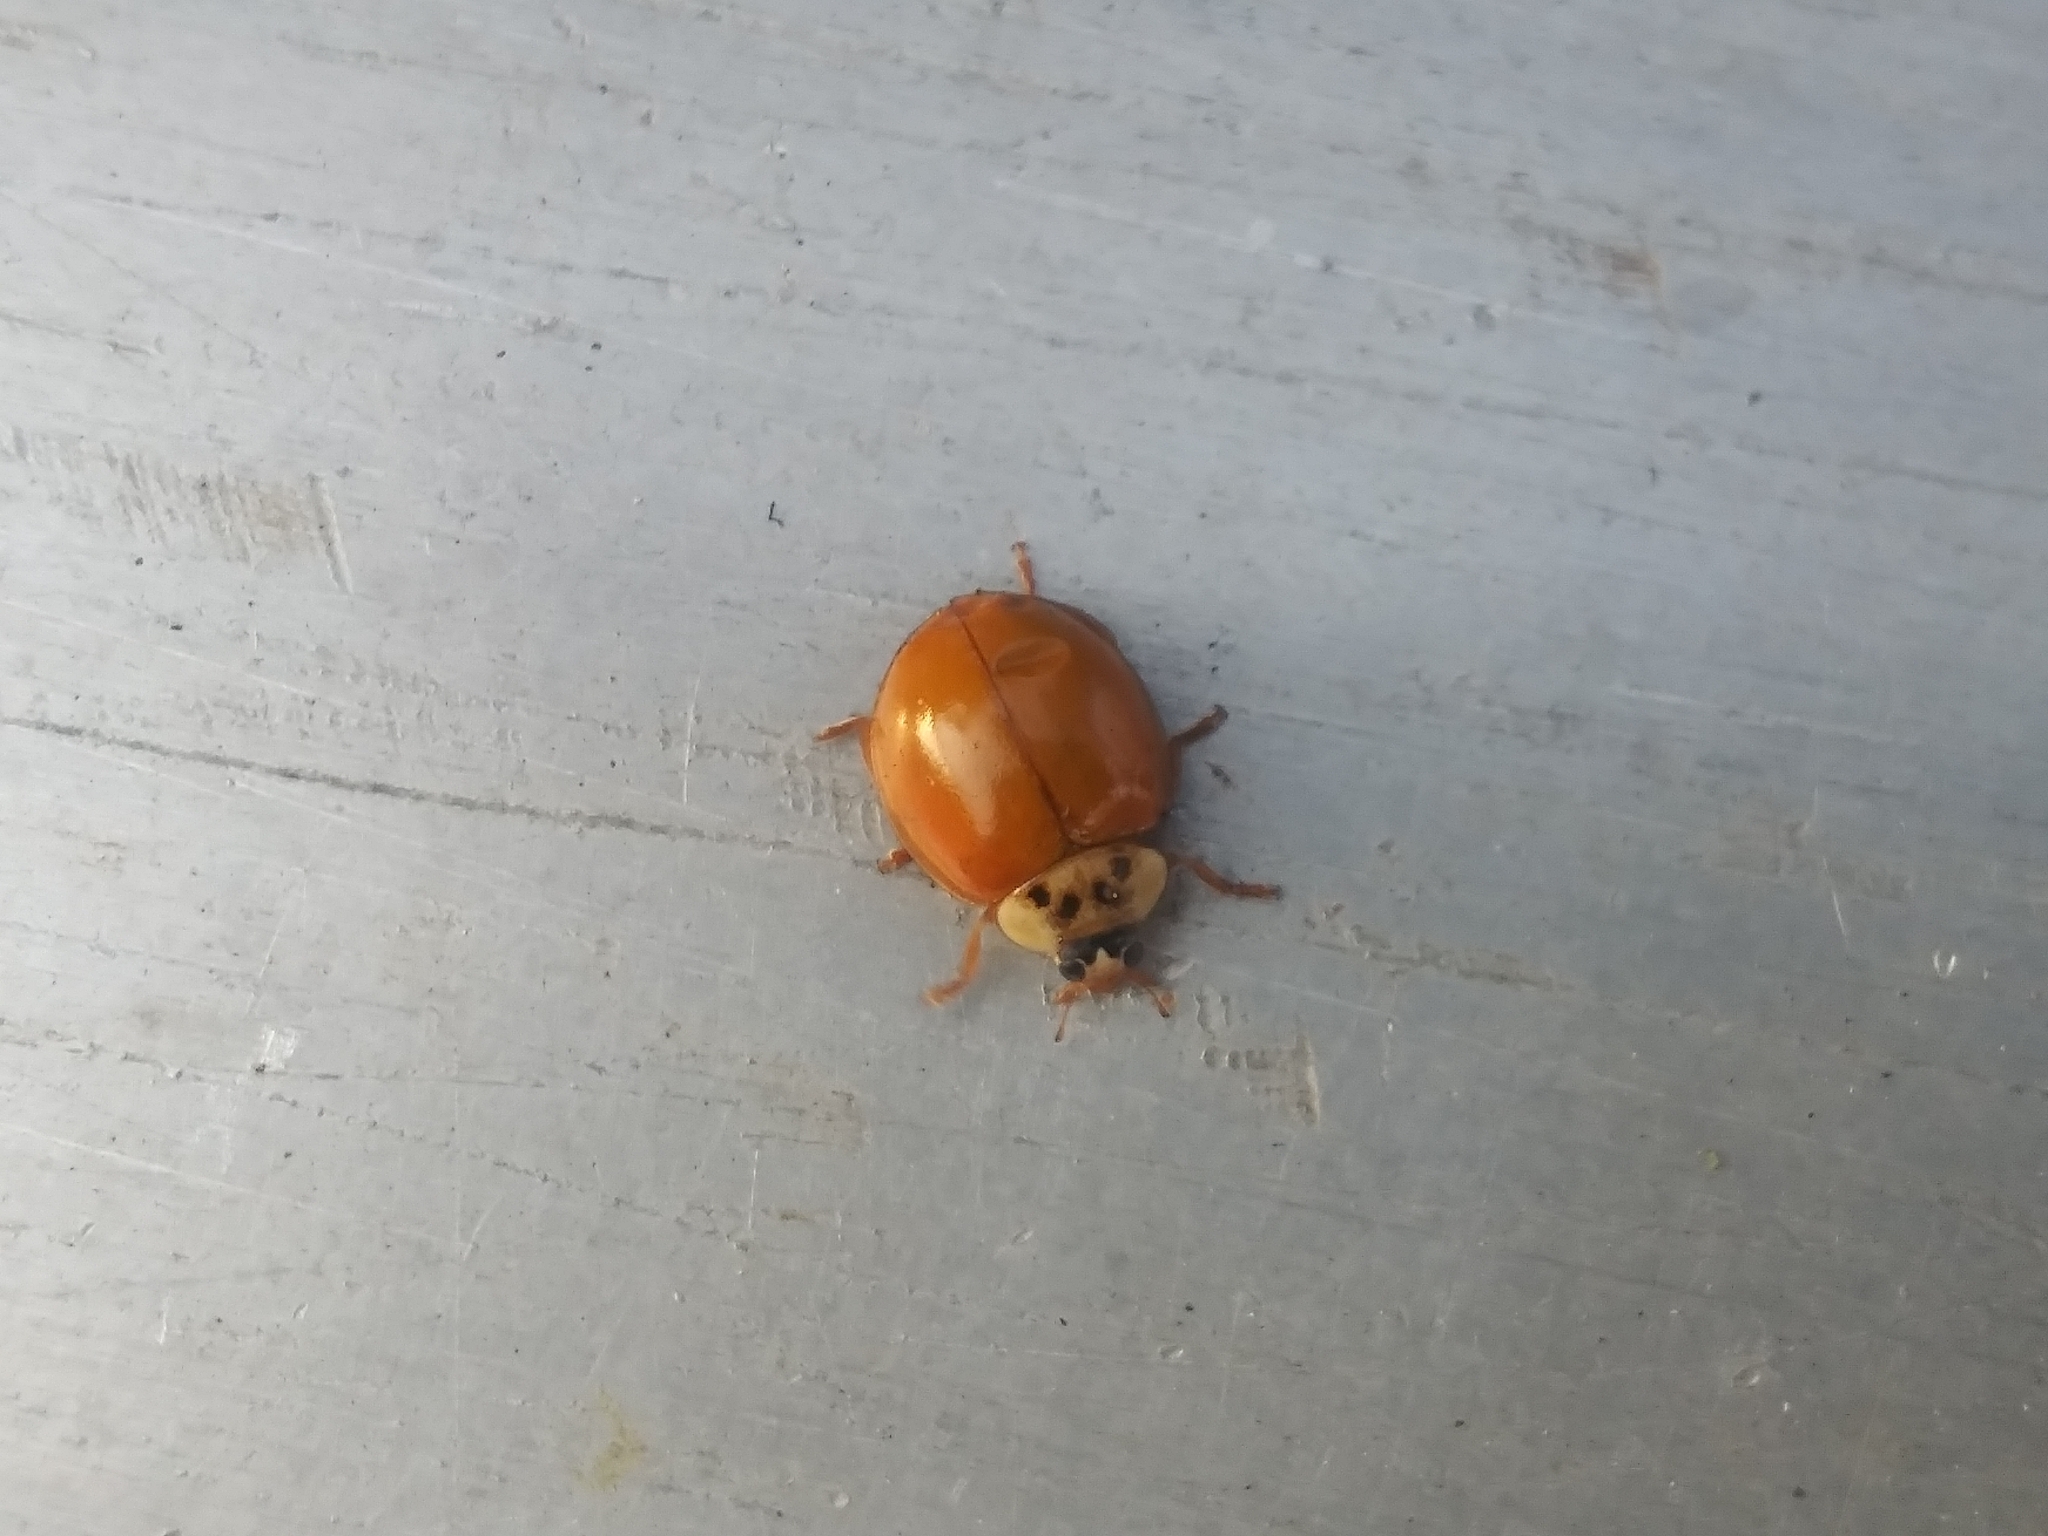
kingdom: Animalia
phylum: Arthropoda
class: Insecta
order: Coleoptera
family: Coccinellidae
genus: Harmonia
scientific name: Harmonia axyridis
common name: Harlequin ladybird
